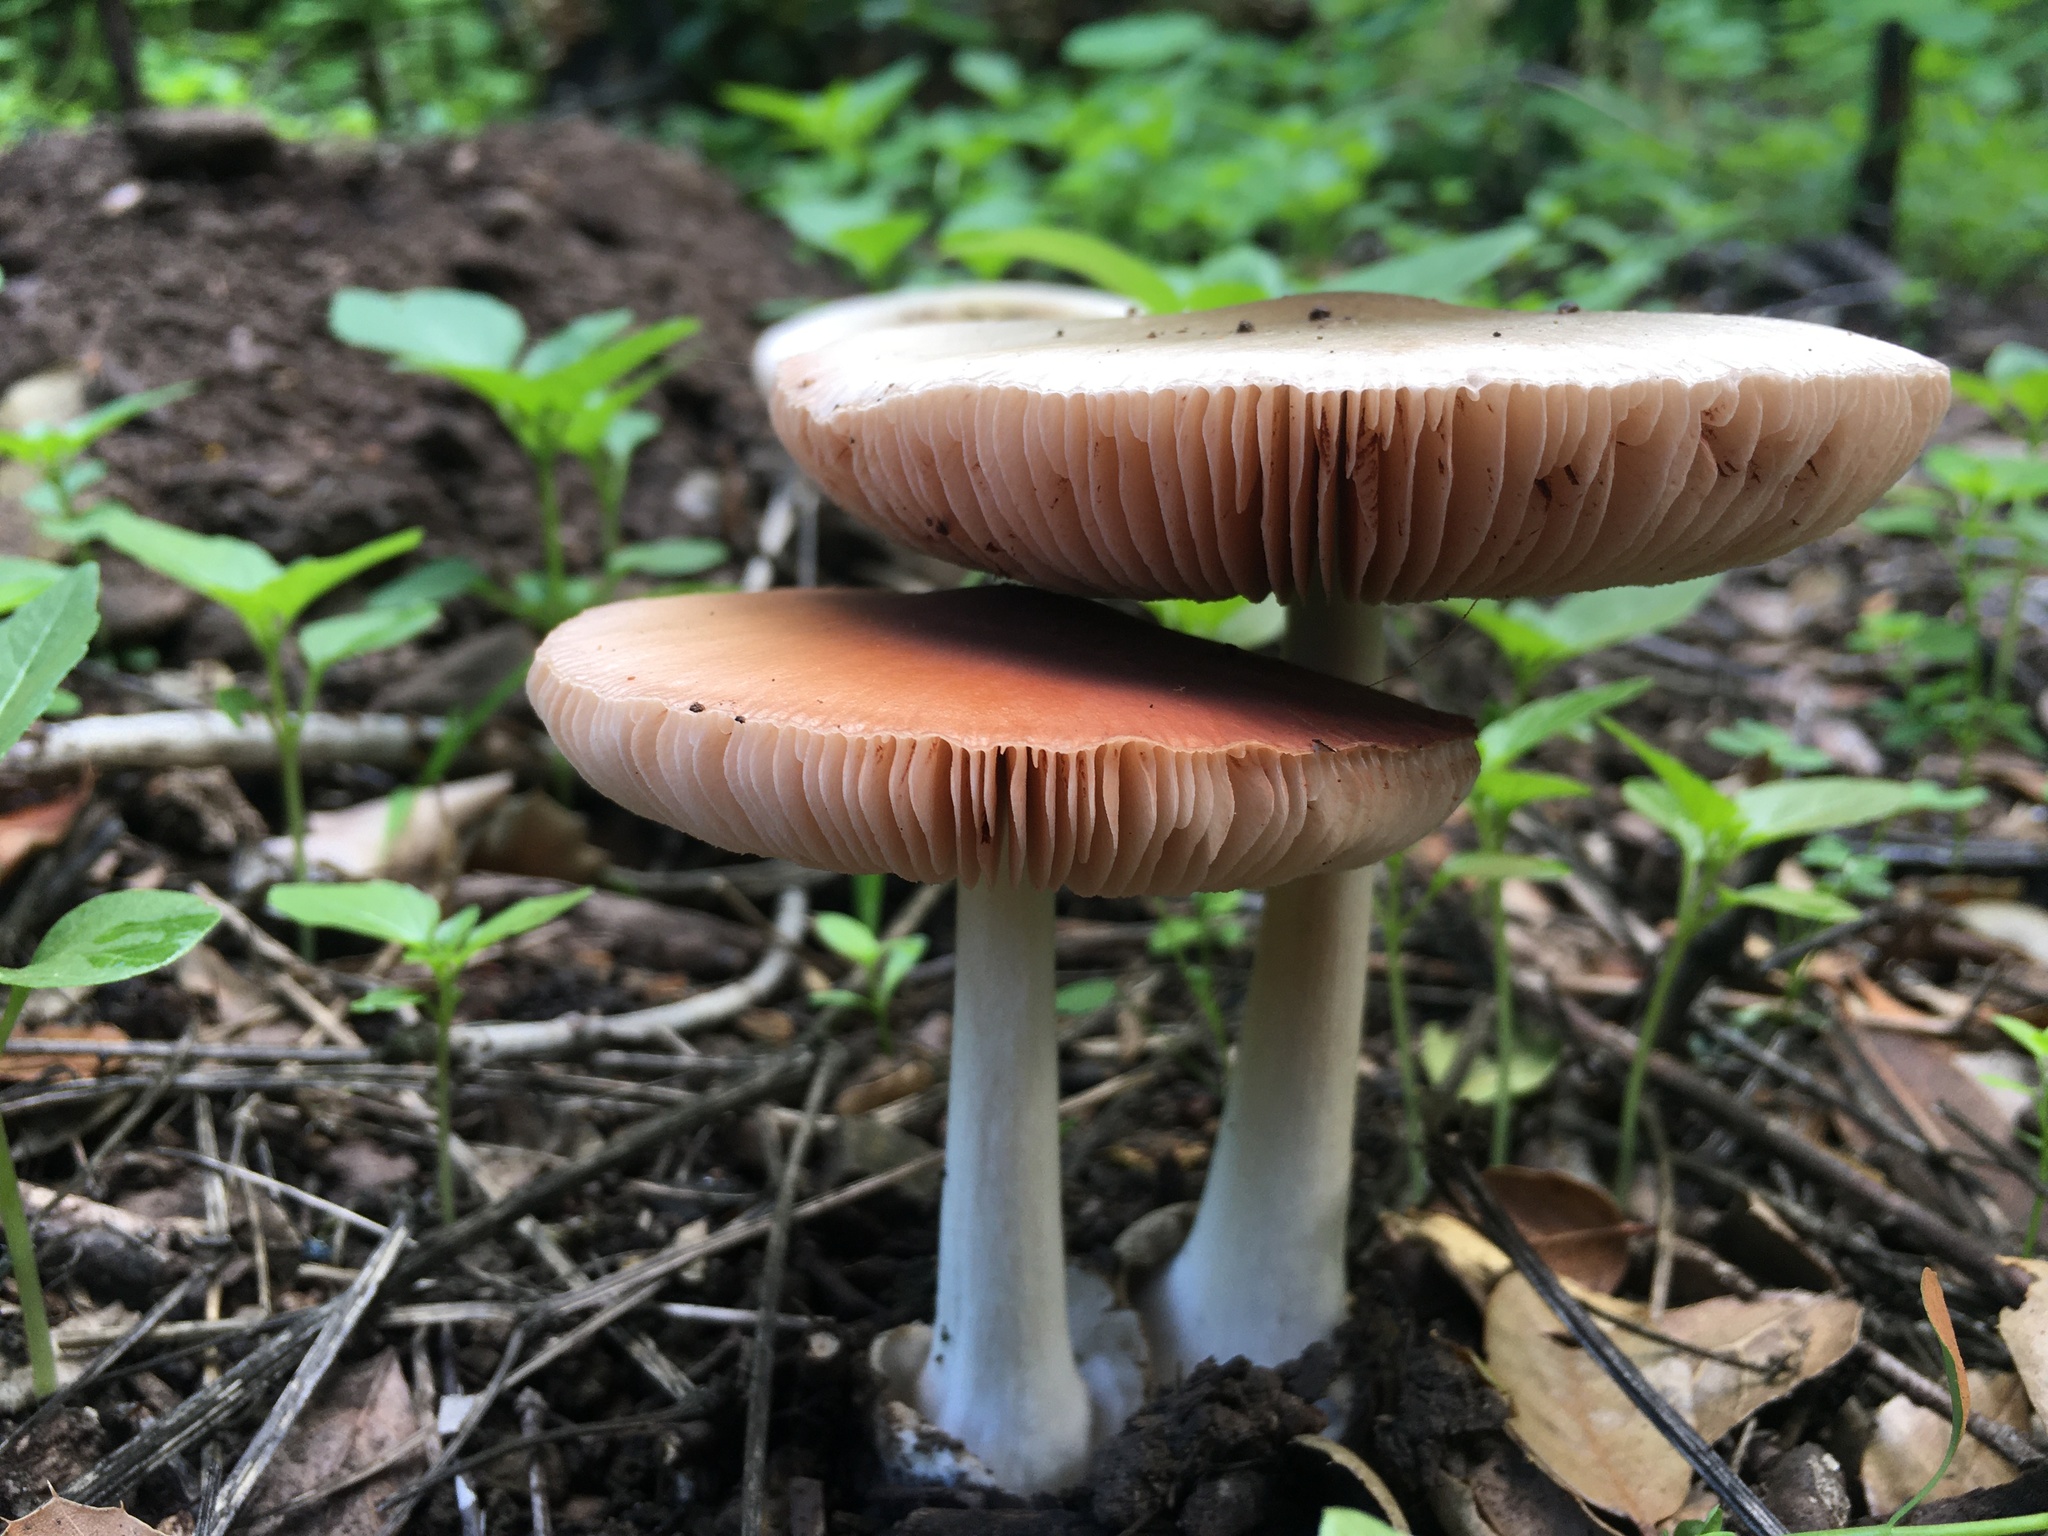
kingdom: Fungi
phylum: Basidiomycota
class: Agaricomycetes
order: Agaricales
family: Pluteaceae
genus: Volvopluteus
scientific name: Volvopluteus gloiocephalus
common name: Stubble rosegill
